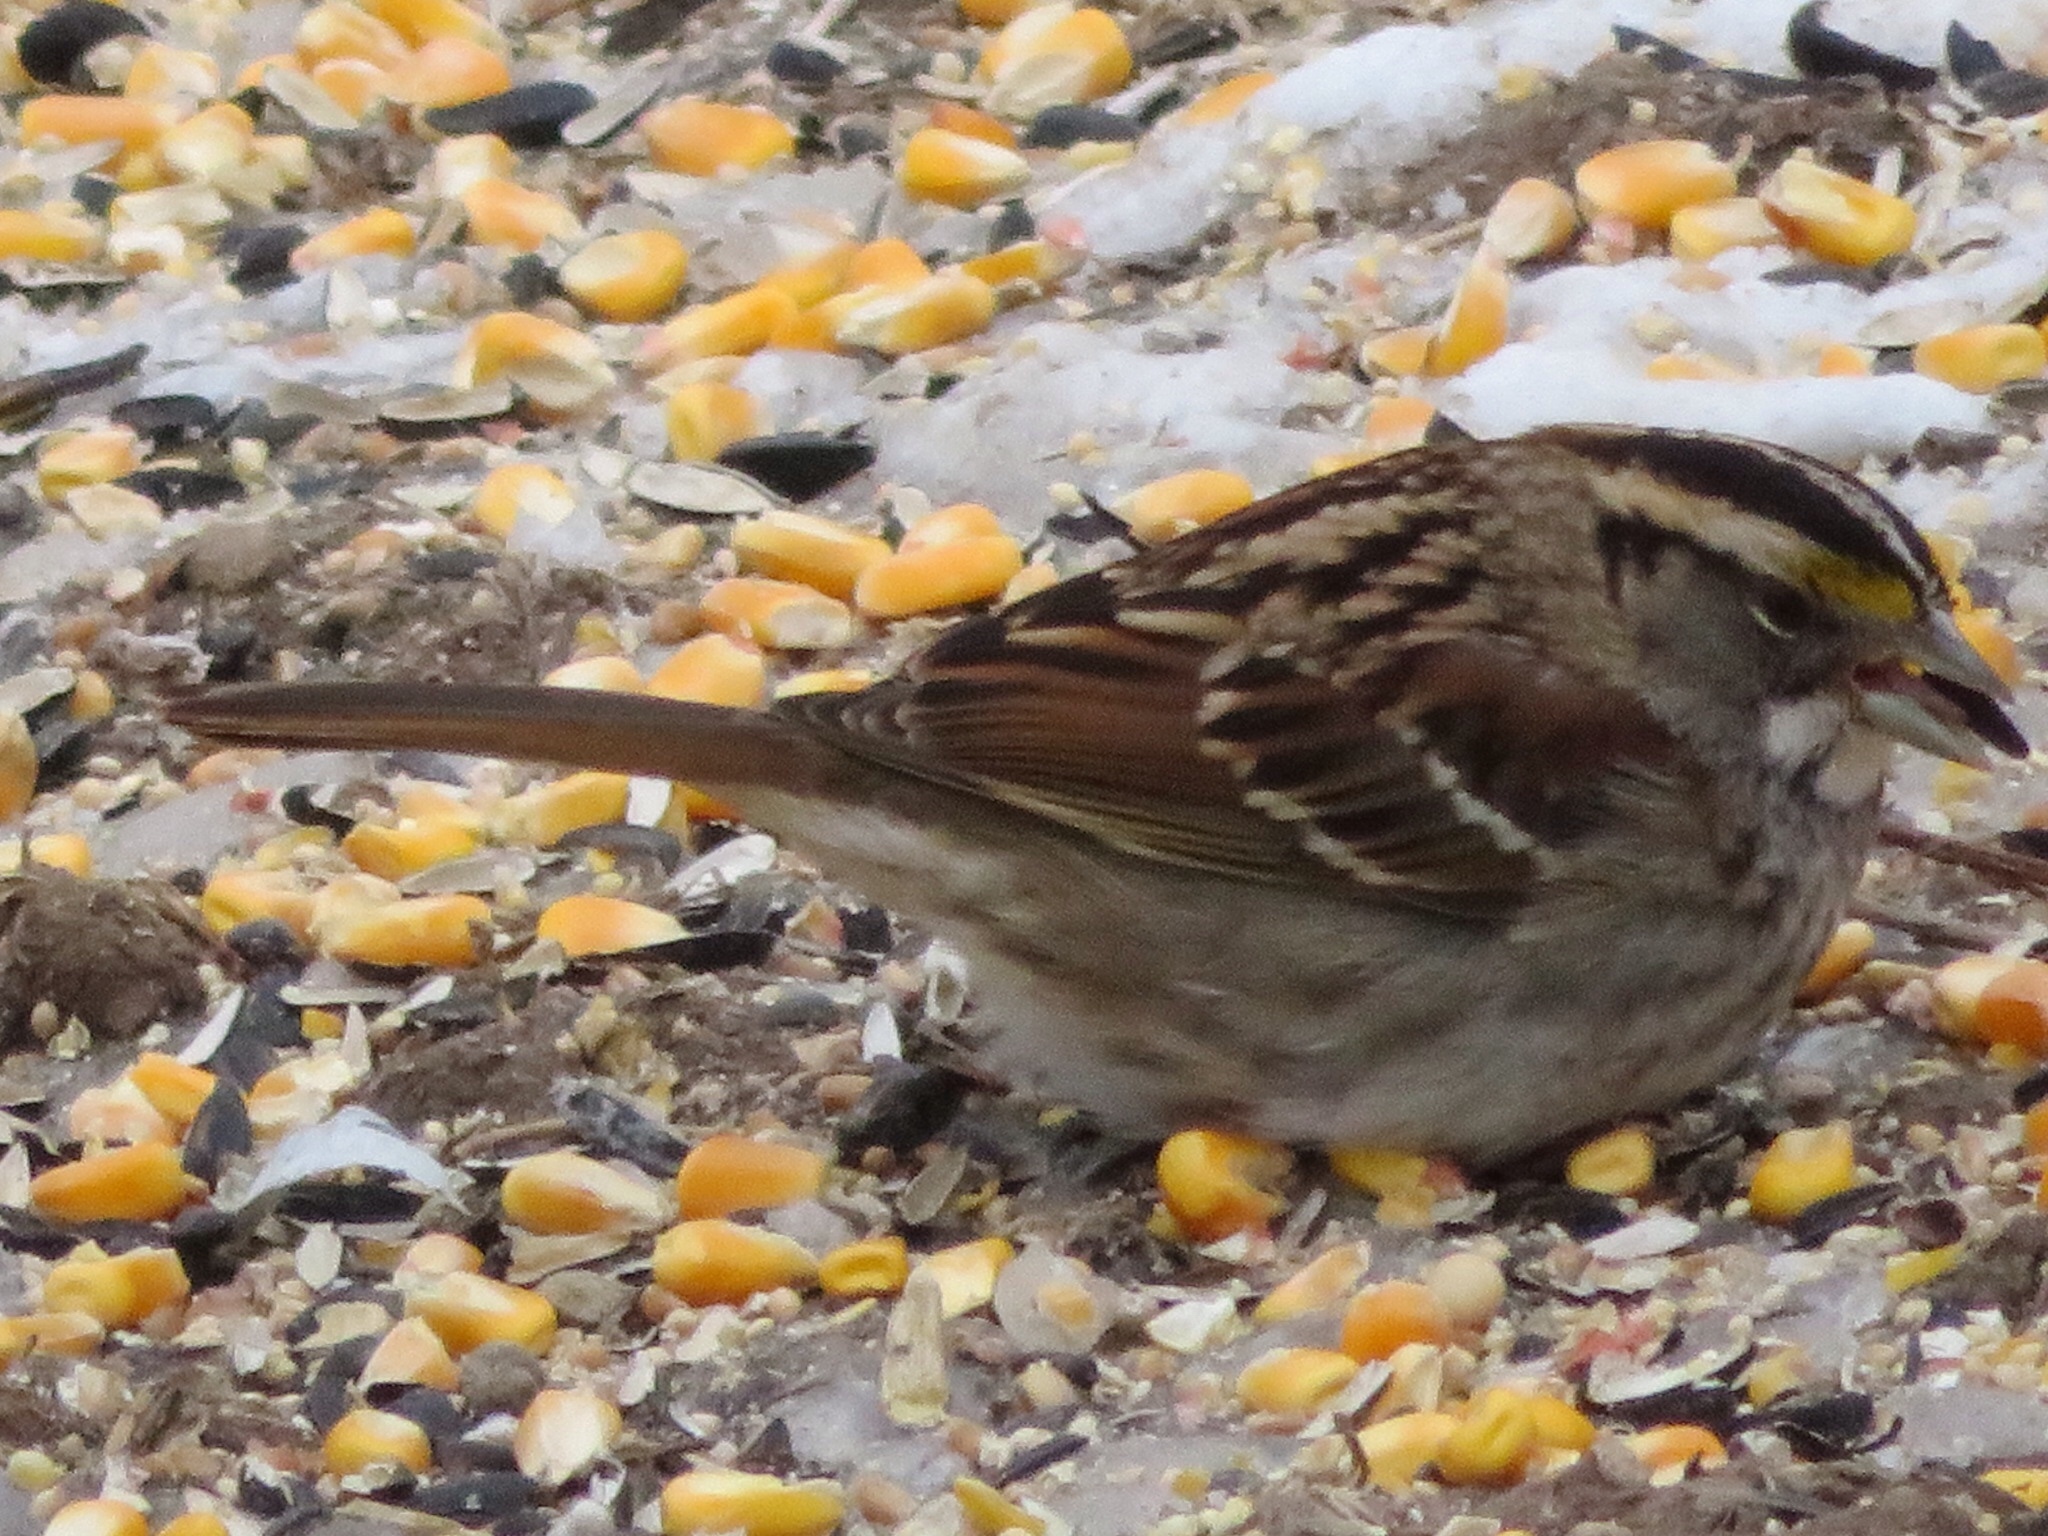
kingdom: Animalia
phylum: Chordata
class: Aves
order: Passeriformes
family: Passerellidae
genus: Zonotrichia
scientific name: Zonotrichia albicollis
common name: White-throated sparrow
